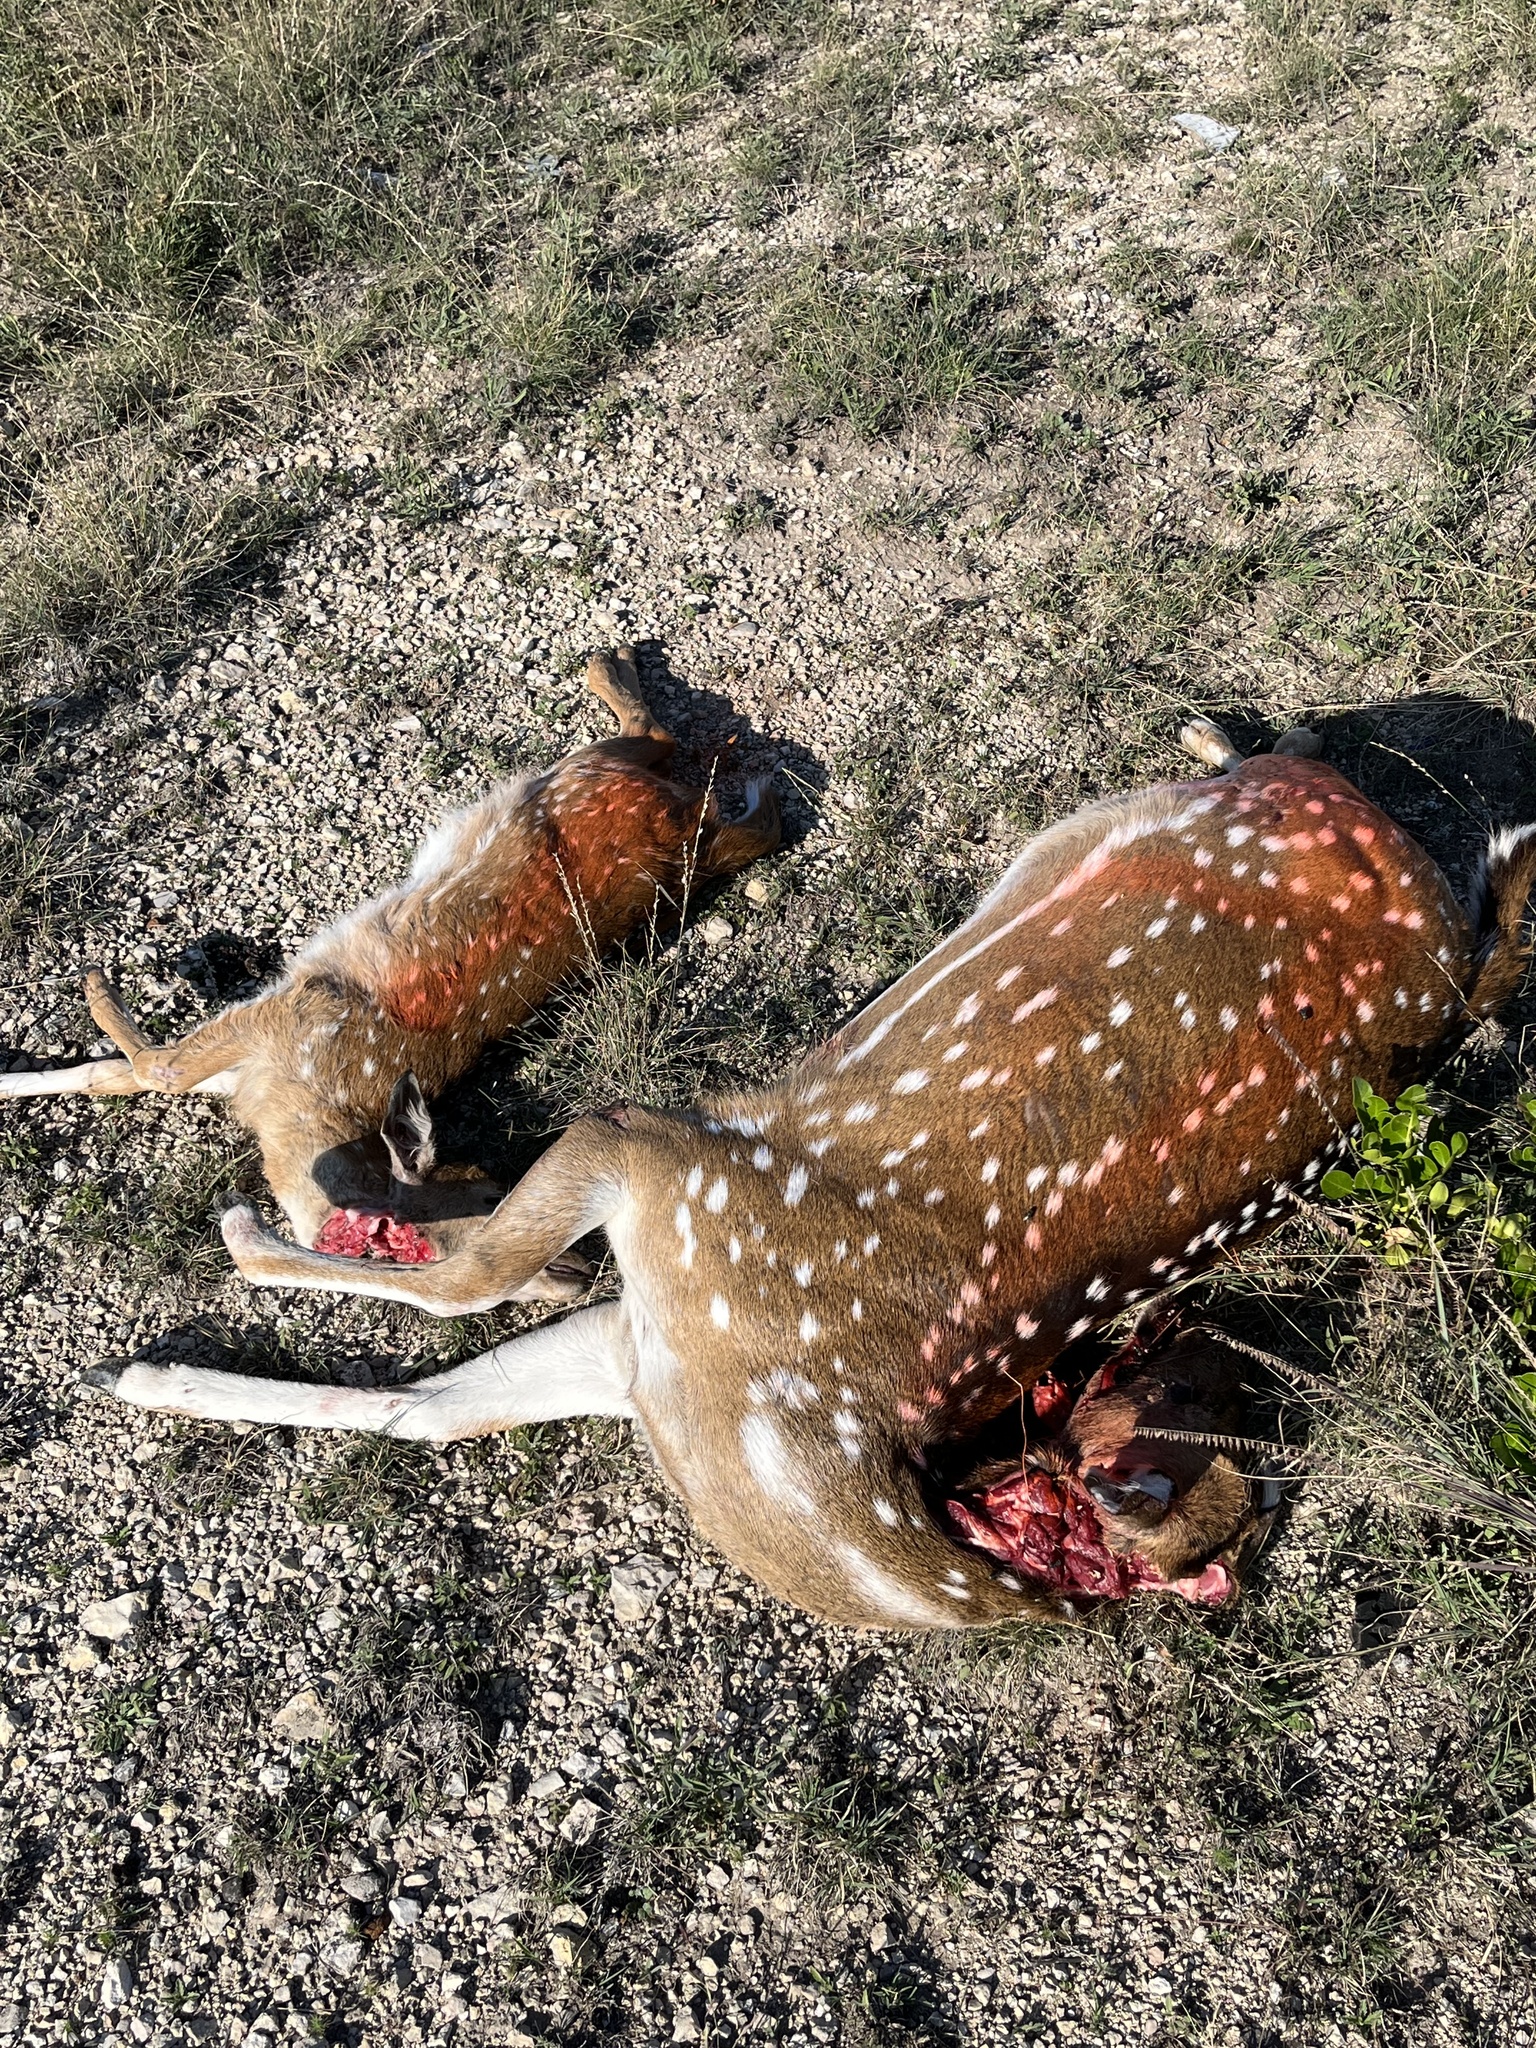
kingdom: Animalia
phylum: Chordata
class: Mammalia
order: Artiodactyla
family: Cervidae
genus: Axis
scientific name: Axis axis
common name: Chital
